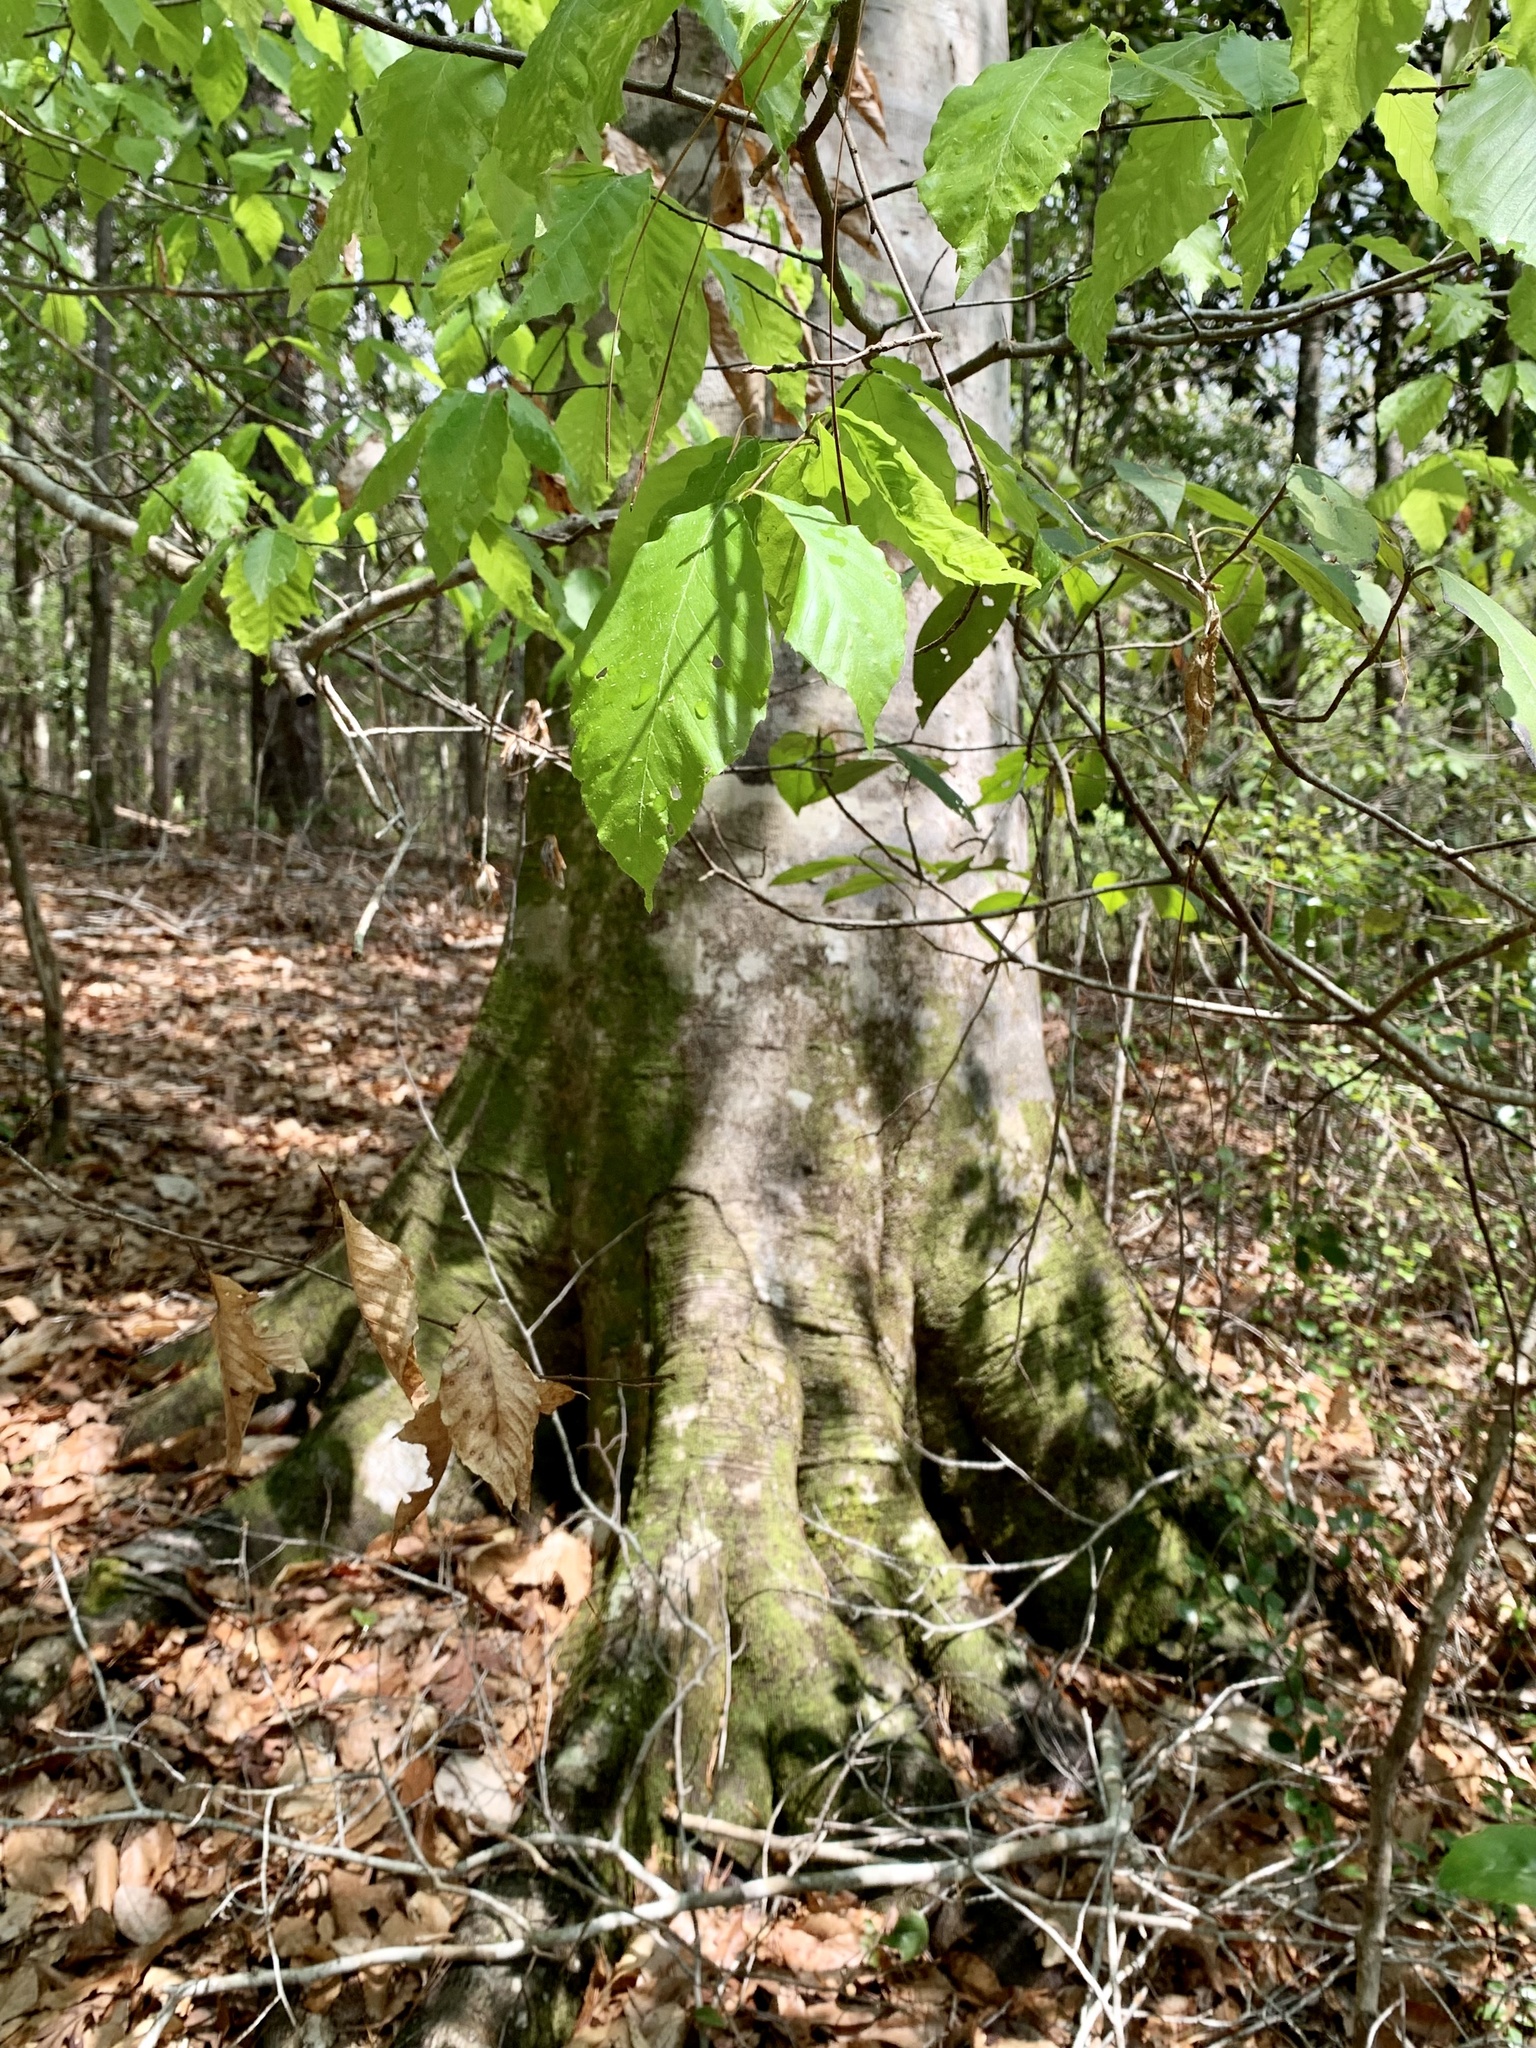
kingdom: Plantae
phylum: Tracheophyta
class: Magnoliopsida
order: Fagales
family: Fagaceae
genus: Fagus
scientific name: Fagus grandifolia
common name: American beech
